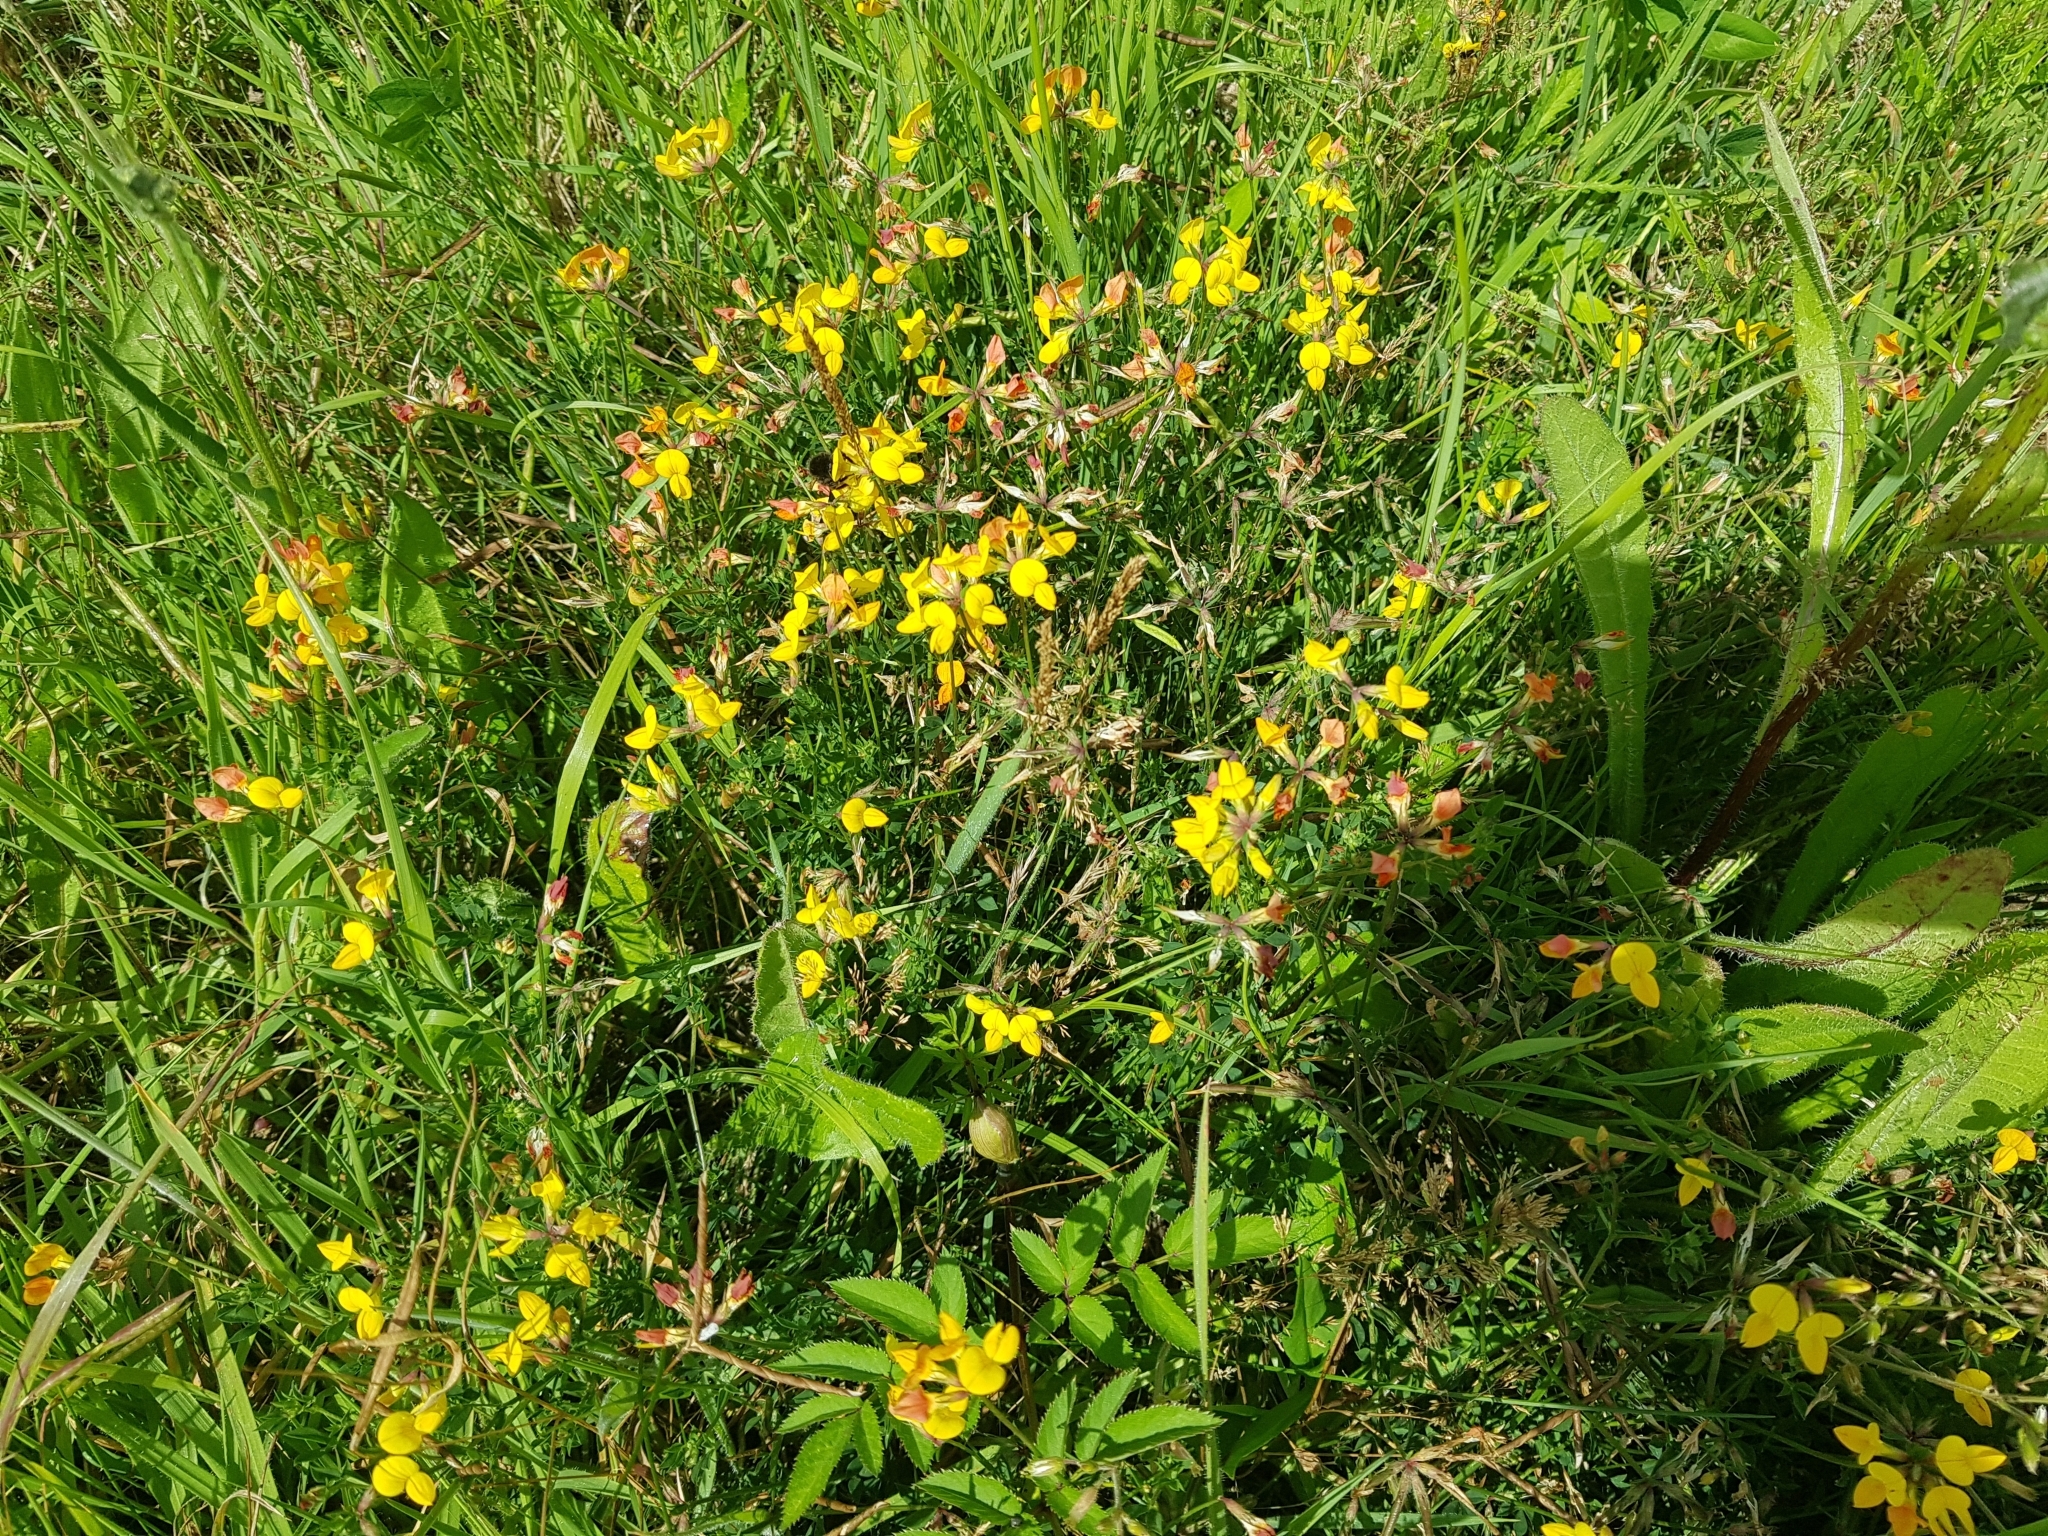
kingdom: Plantae
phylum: Tracheophyta
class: Magnoliopsida
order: Fabales
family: Fabaceae
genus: Lotus
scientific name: Lotus corniculatus
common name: Common bird's-foot-trefoil
